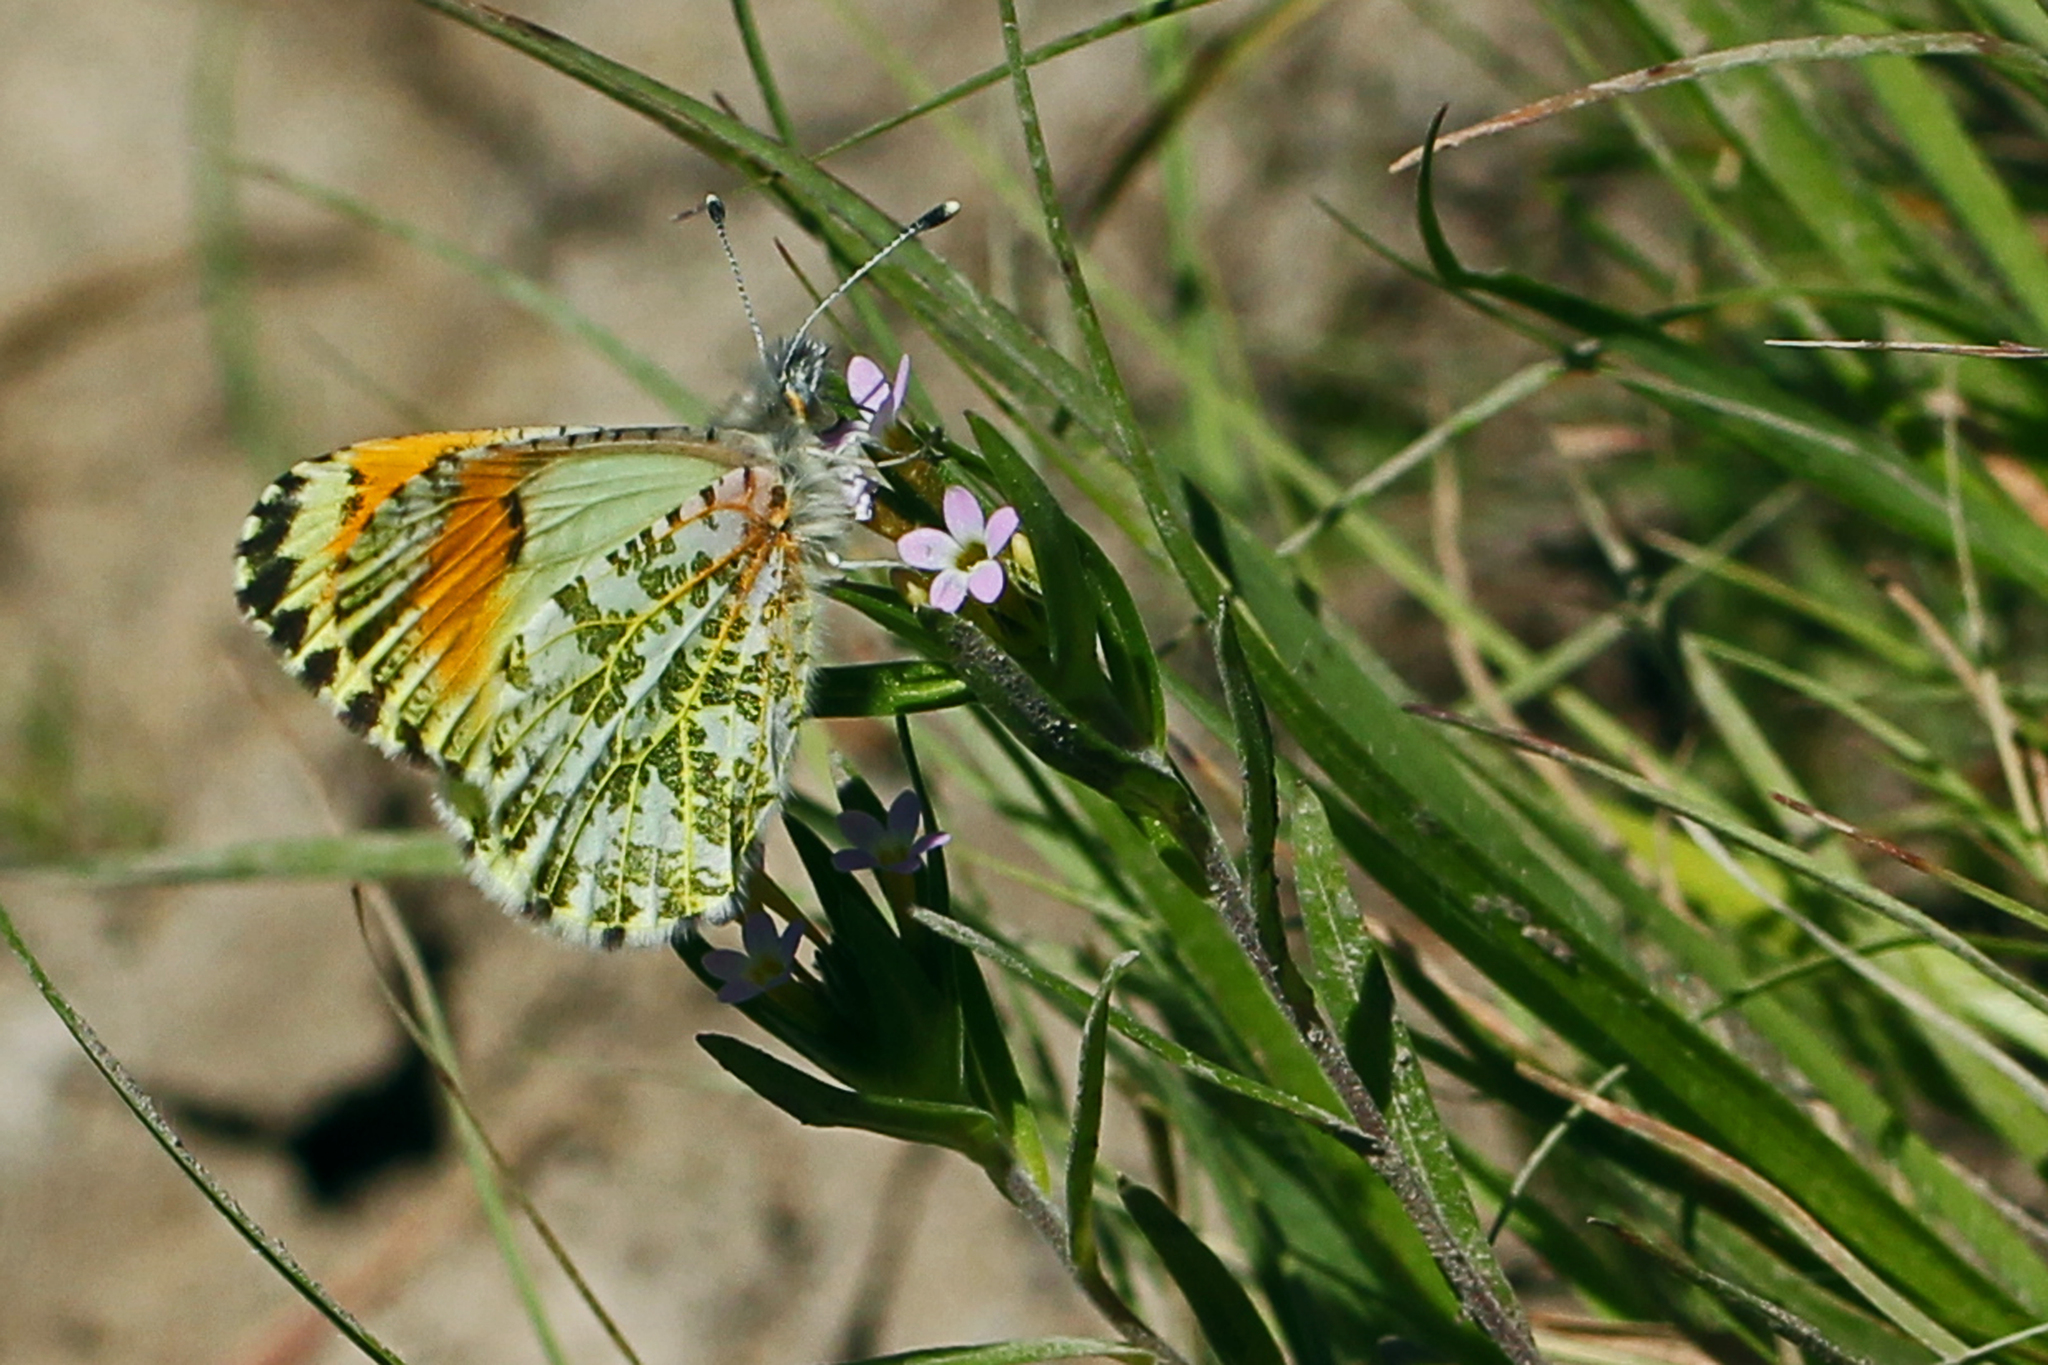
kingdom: Animalia
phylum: Arthropoda
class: Insecta
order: Lepidoptera
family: Pieridae
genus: Anthocharis
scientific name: Anthocharis julia
